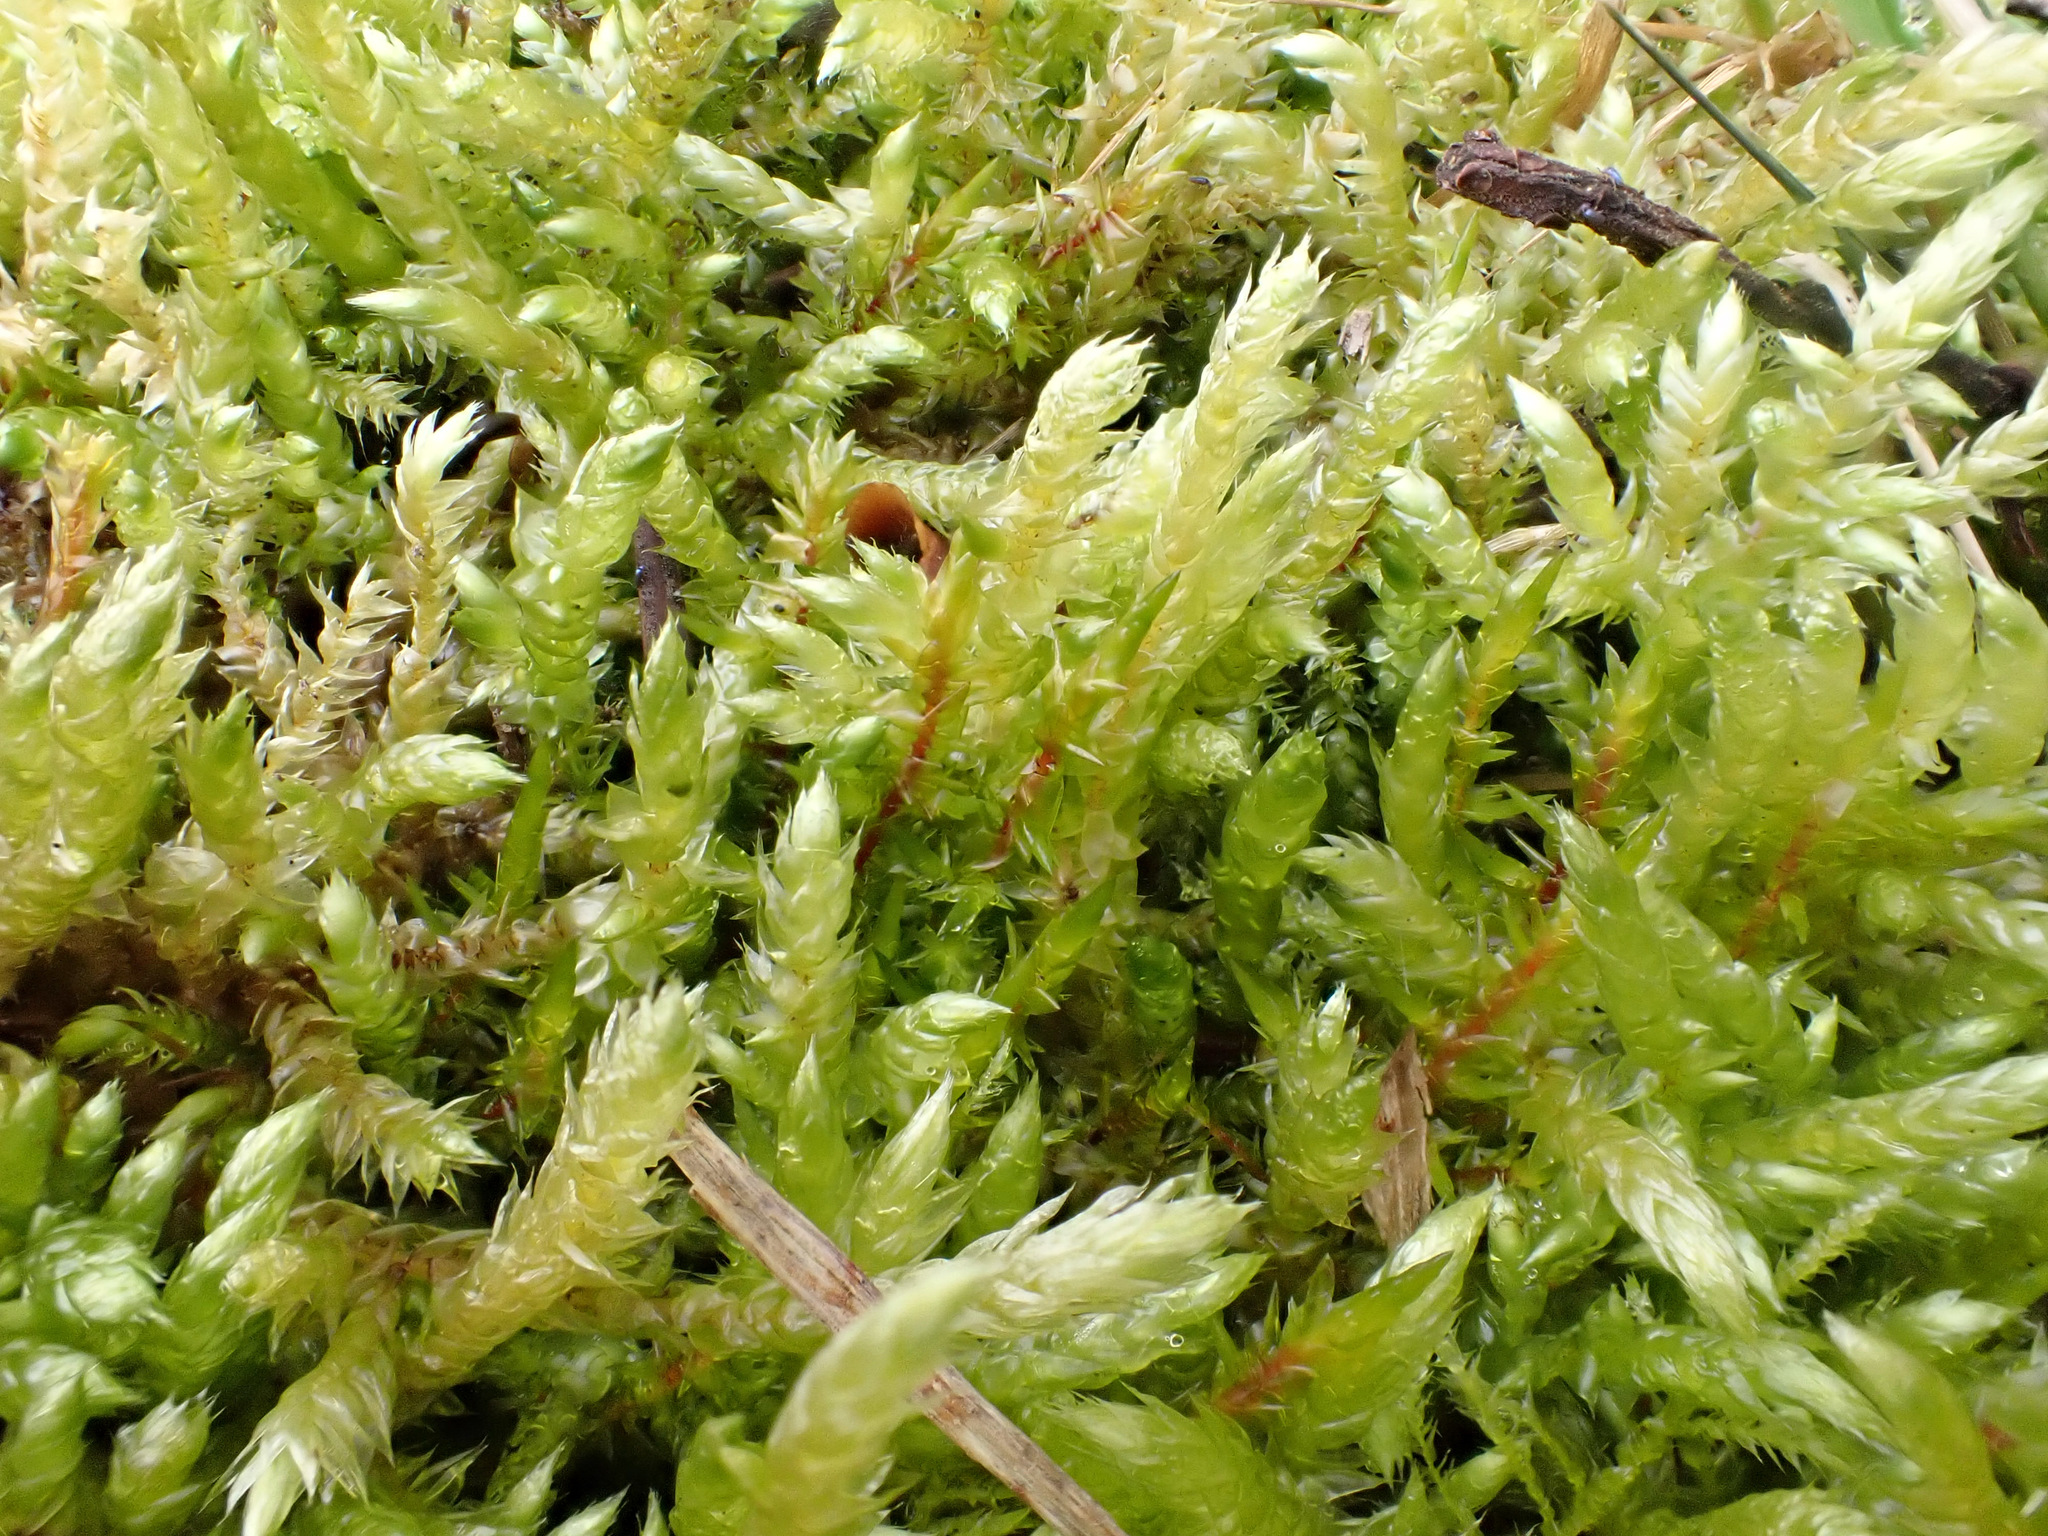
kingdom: Plantae
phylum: Bryophyta
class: Bryopsida
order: Hypnales
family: Pylaisiaceae
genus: Calliergonella
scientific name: Calliergonella cuspidata
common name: Common large wetland moss
